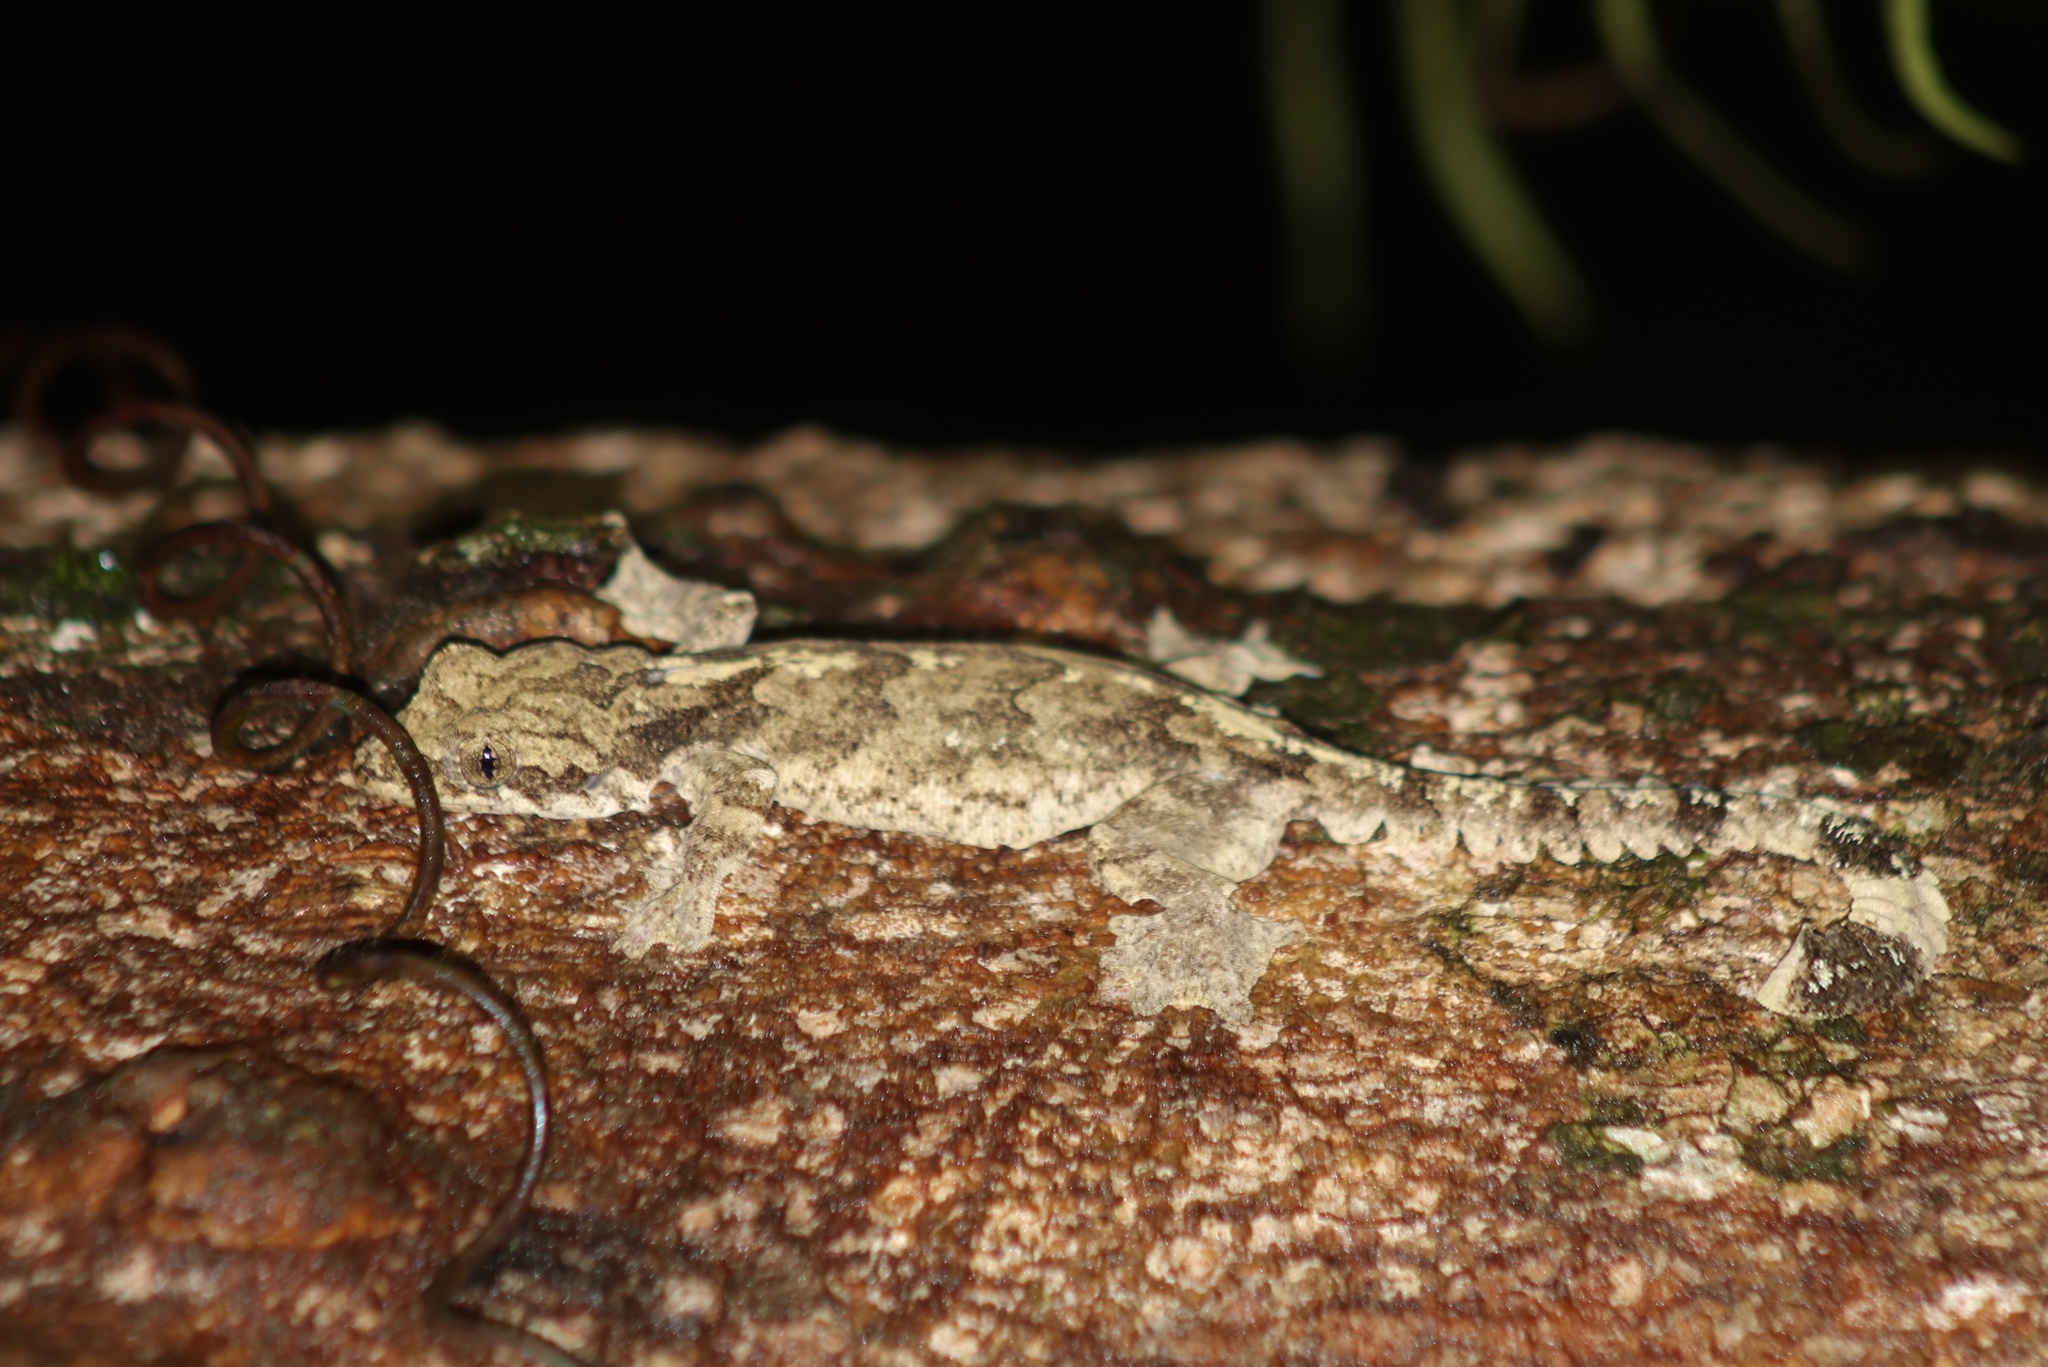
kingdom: Animalia
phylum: Chordata
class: Squamata
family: Gekkonidae
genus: Gekko
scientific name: Gekko tokehos
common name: Cambodian parachute gecko
